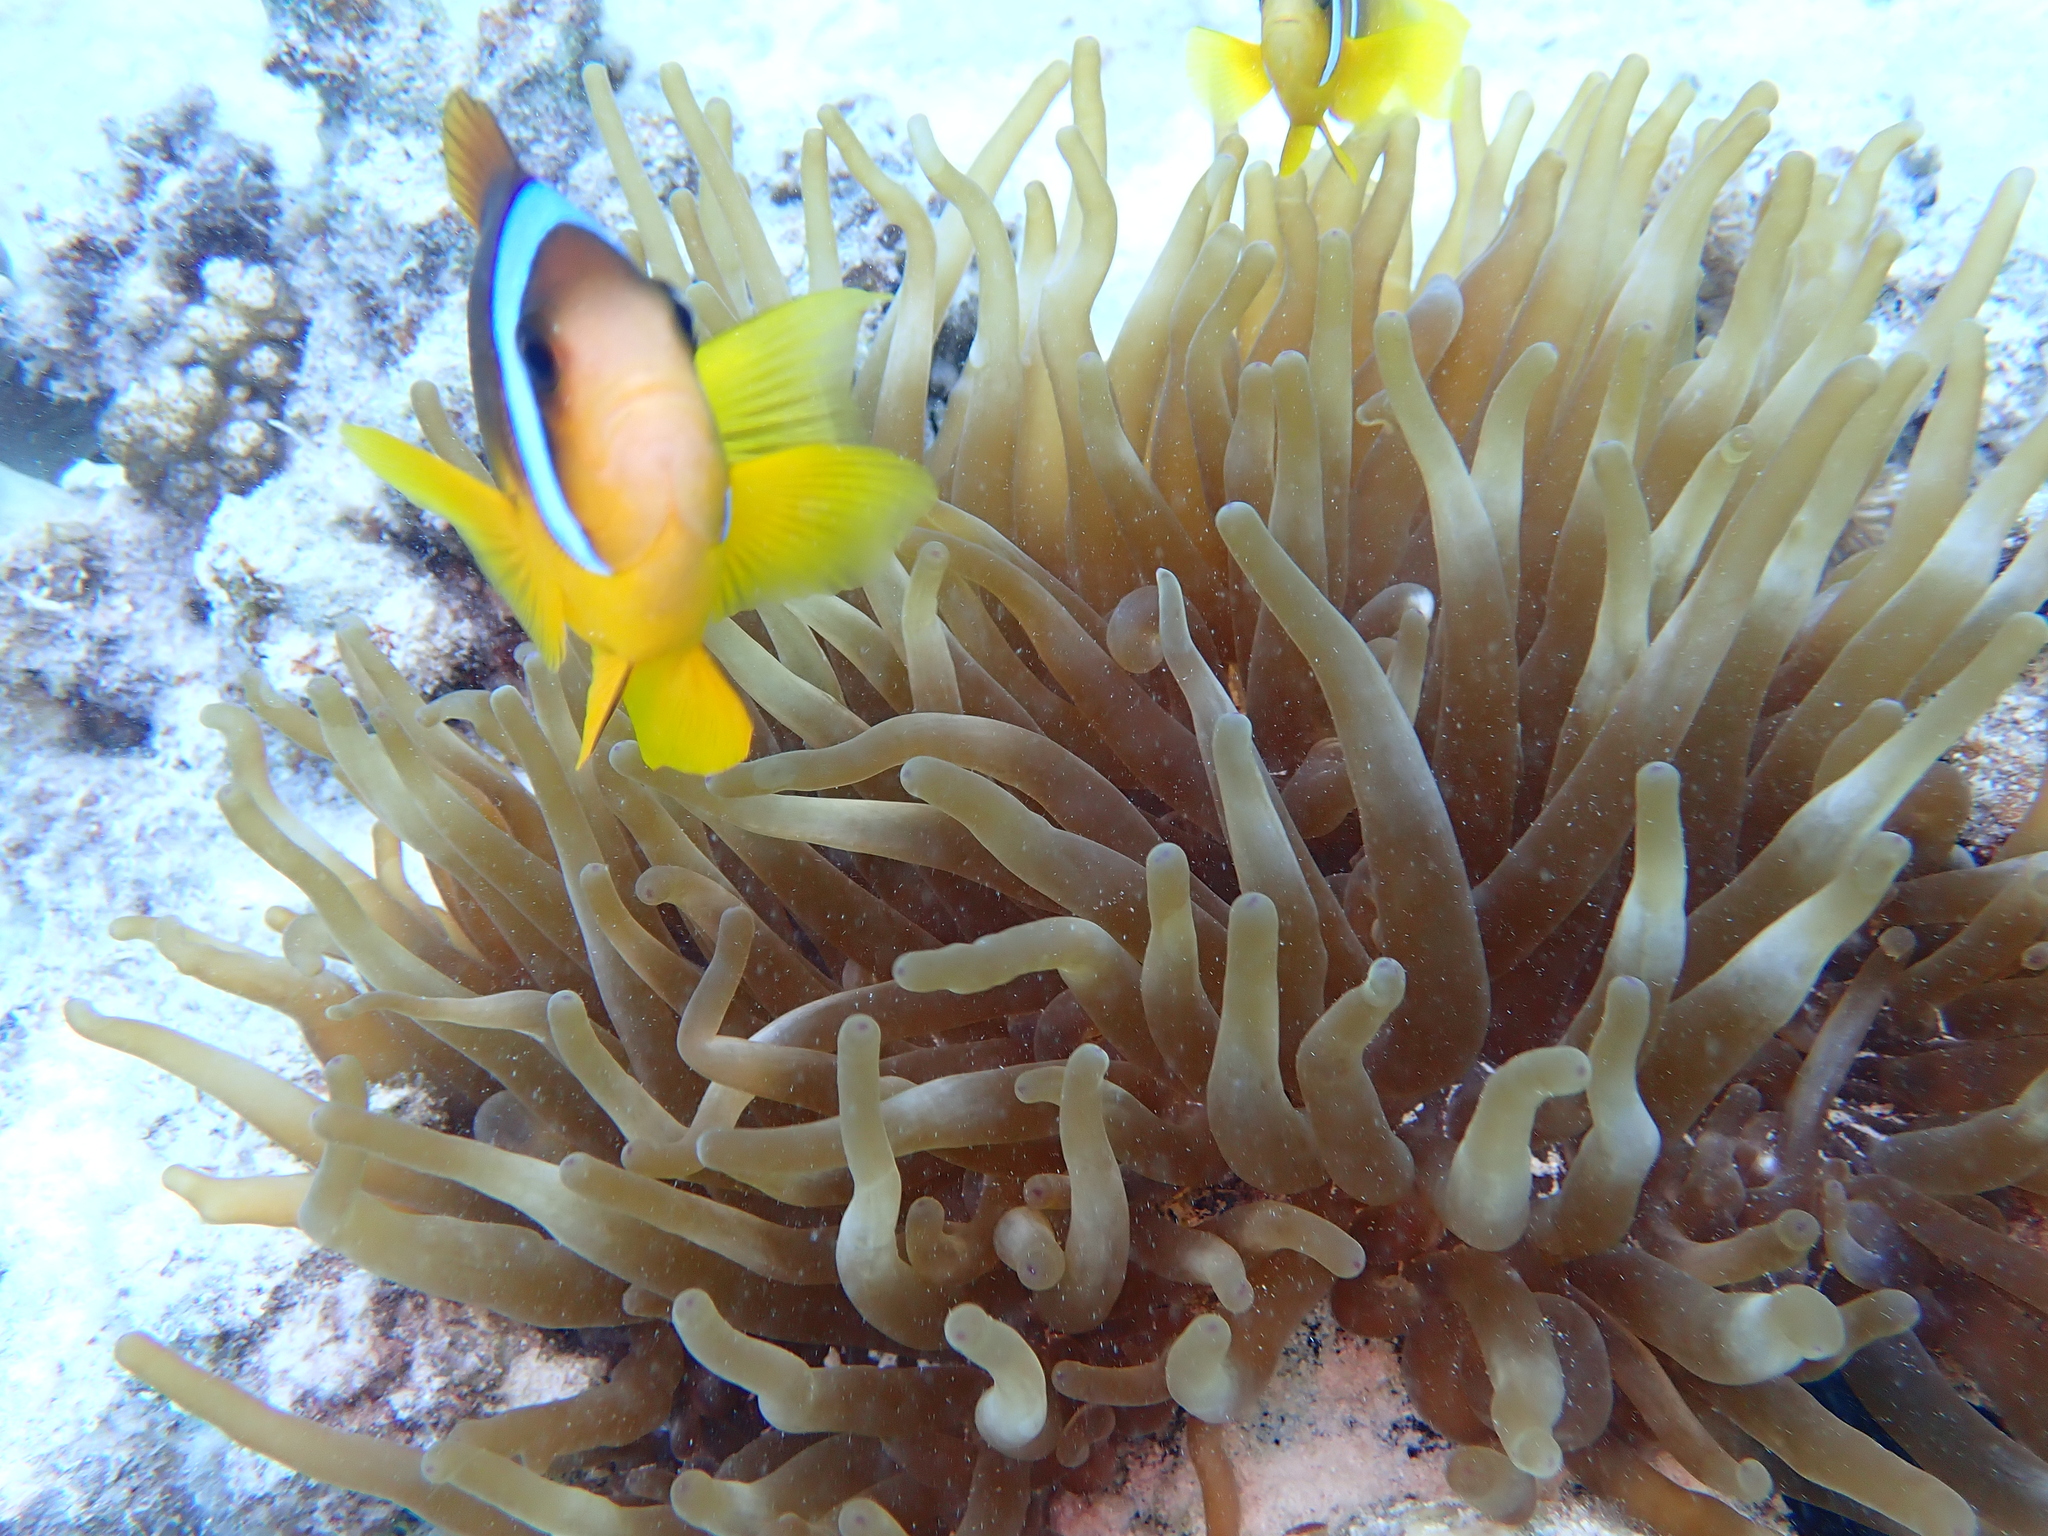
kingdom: Animalia
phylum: Cnidaria
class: Anthozoa
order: Actiniaria
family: Actiniidae
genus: Entacmaea
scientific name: Entacmaea quadricolor
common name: Bulb tentacle sea anemone
